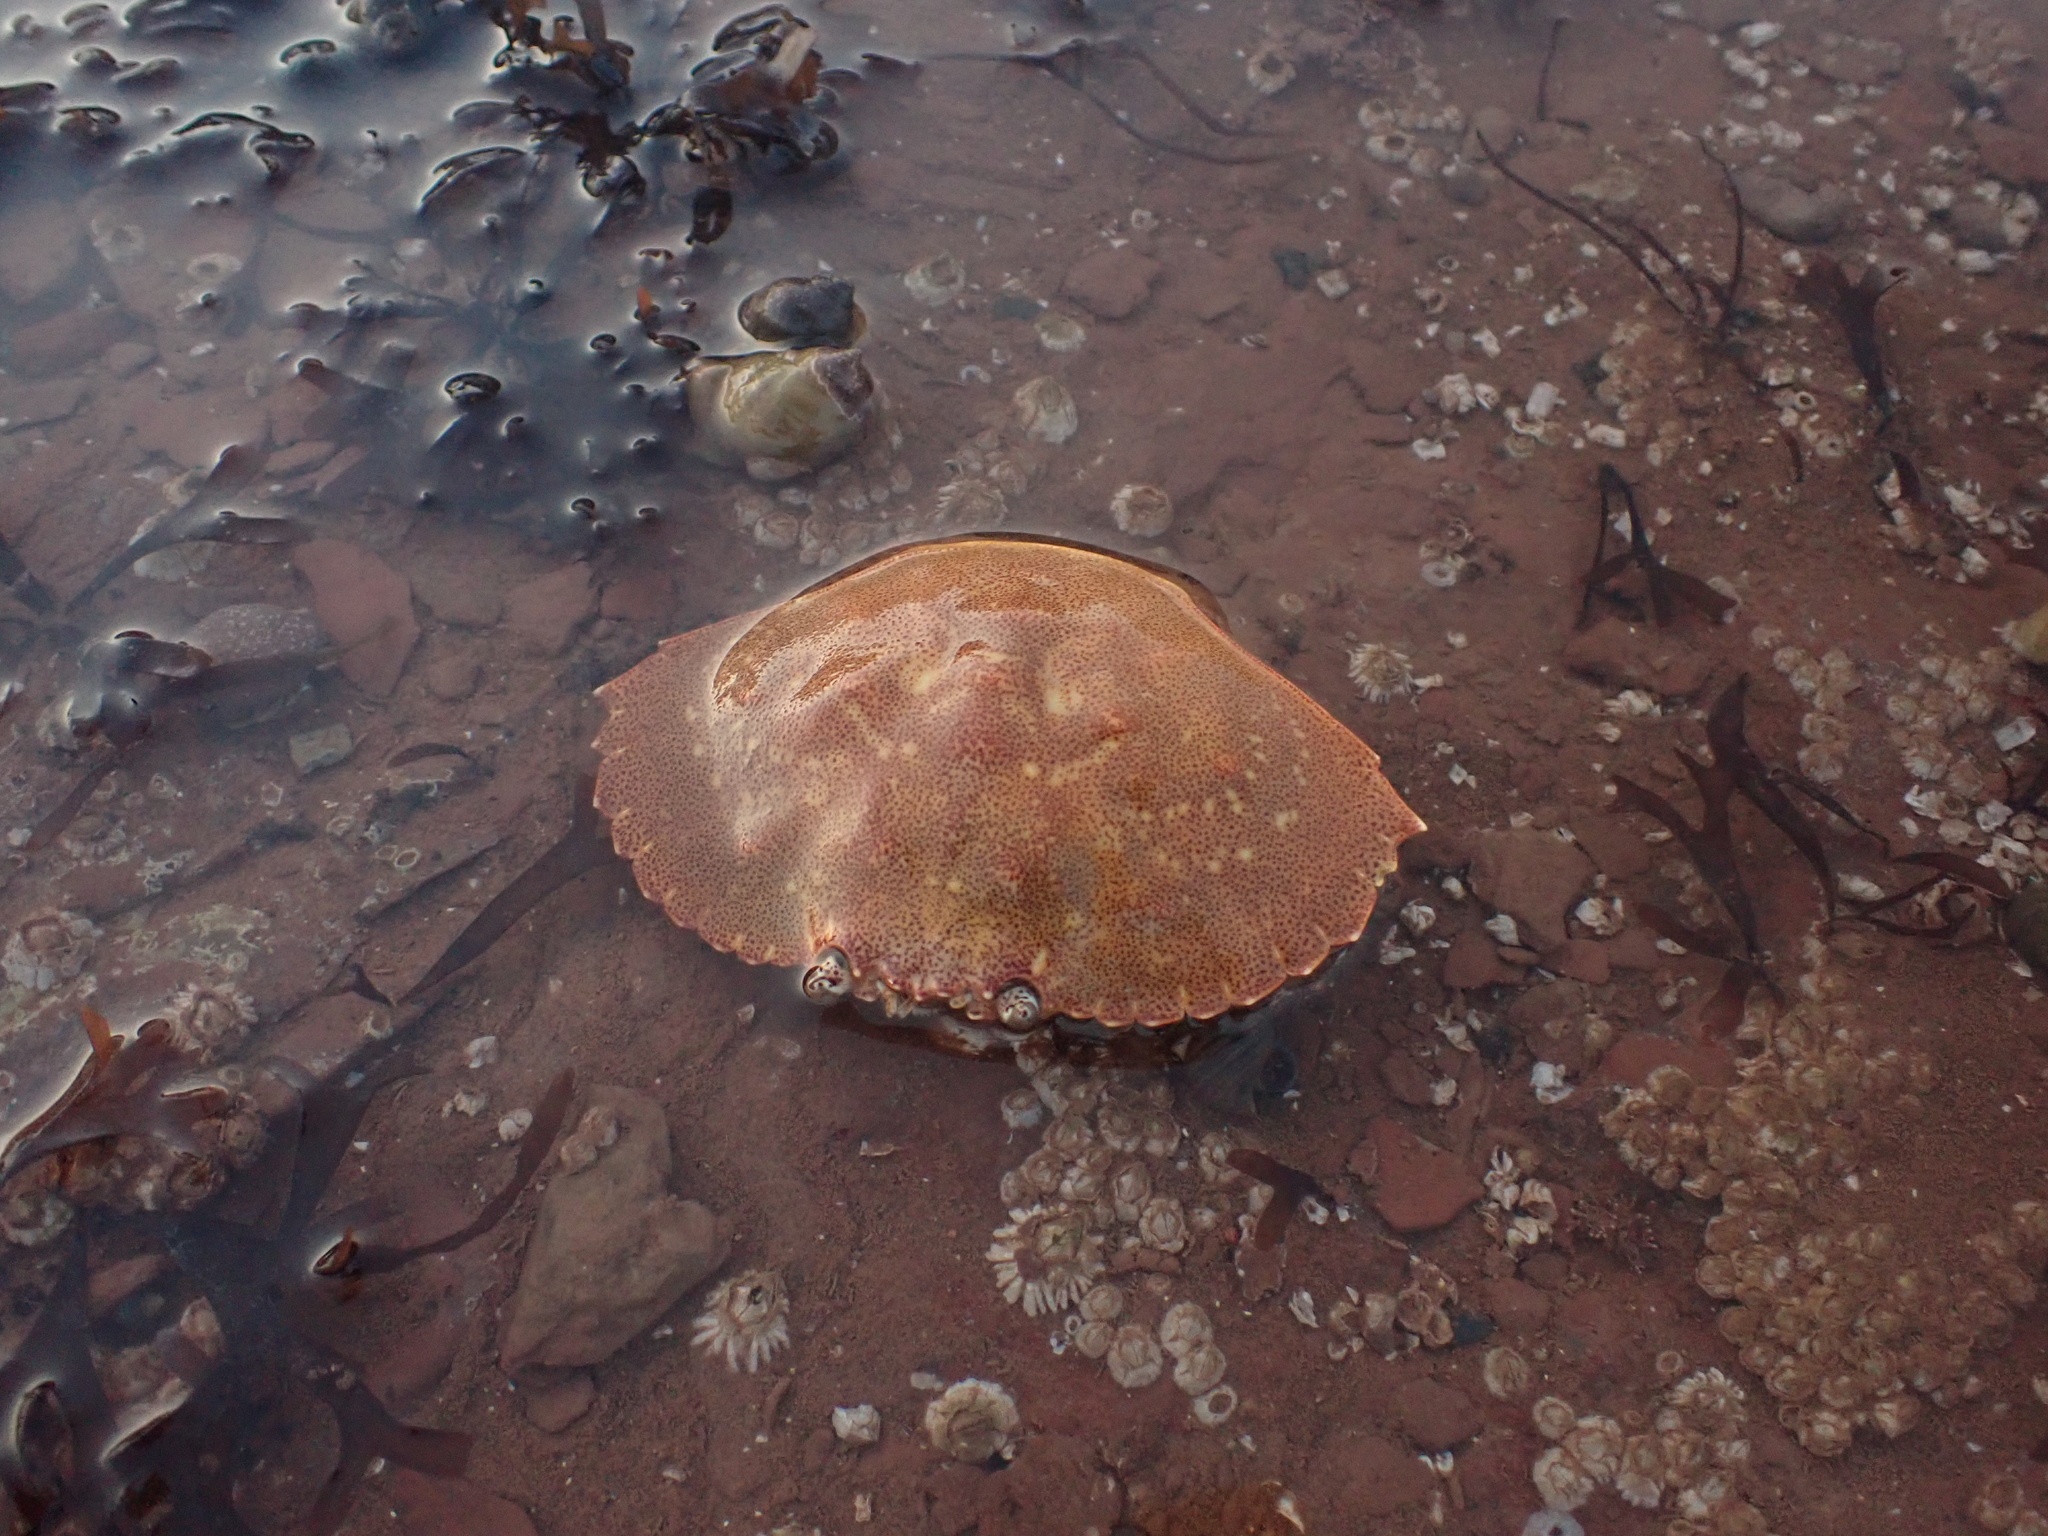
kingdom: Animalia
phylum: Arthropoda
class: Malacostraca
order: Decapoda
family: Cancridae
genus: Cancer
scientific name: Cancer irroratus
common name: Atlantic rock crab
